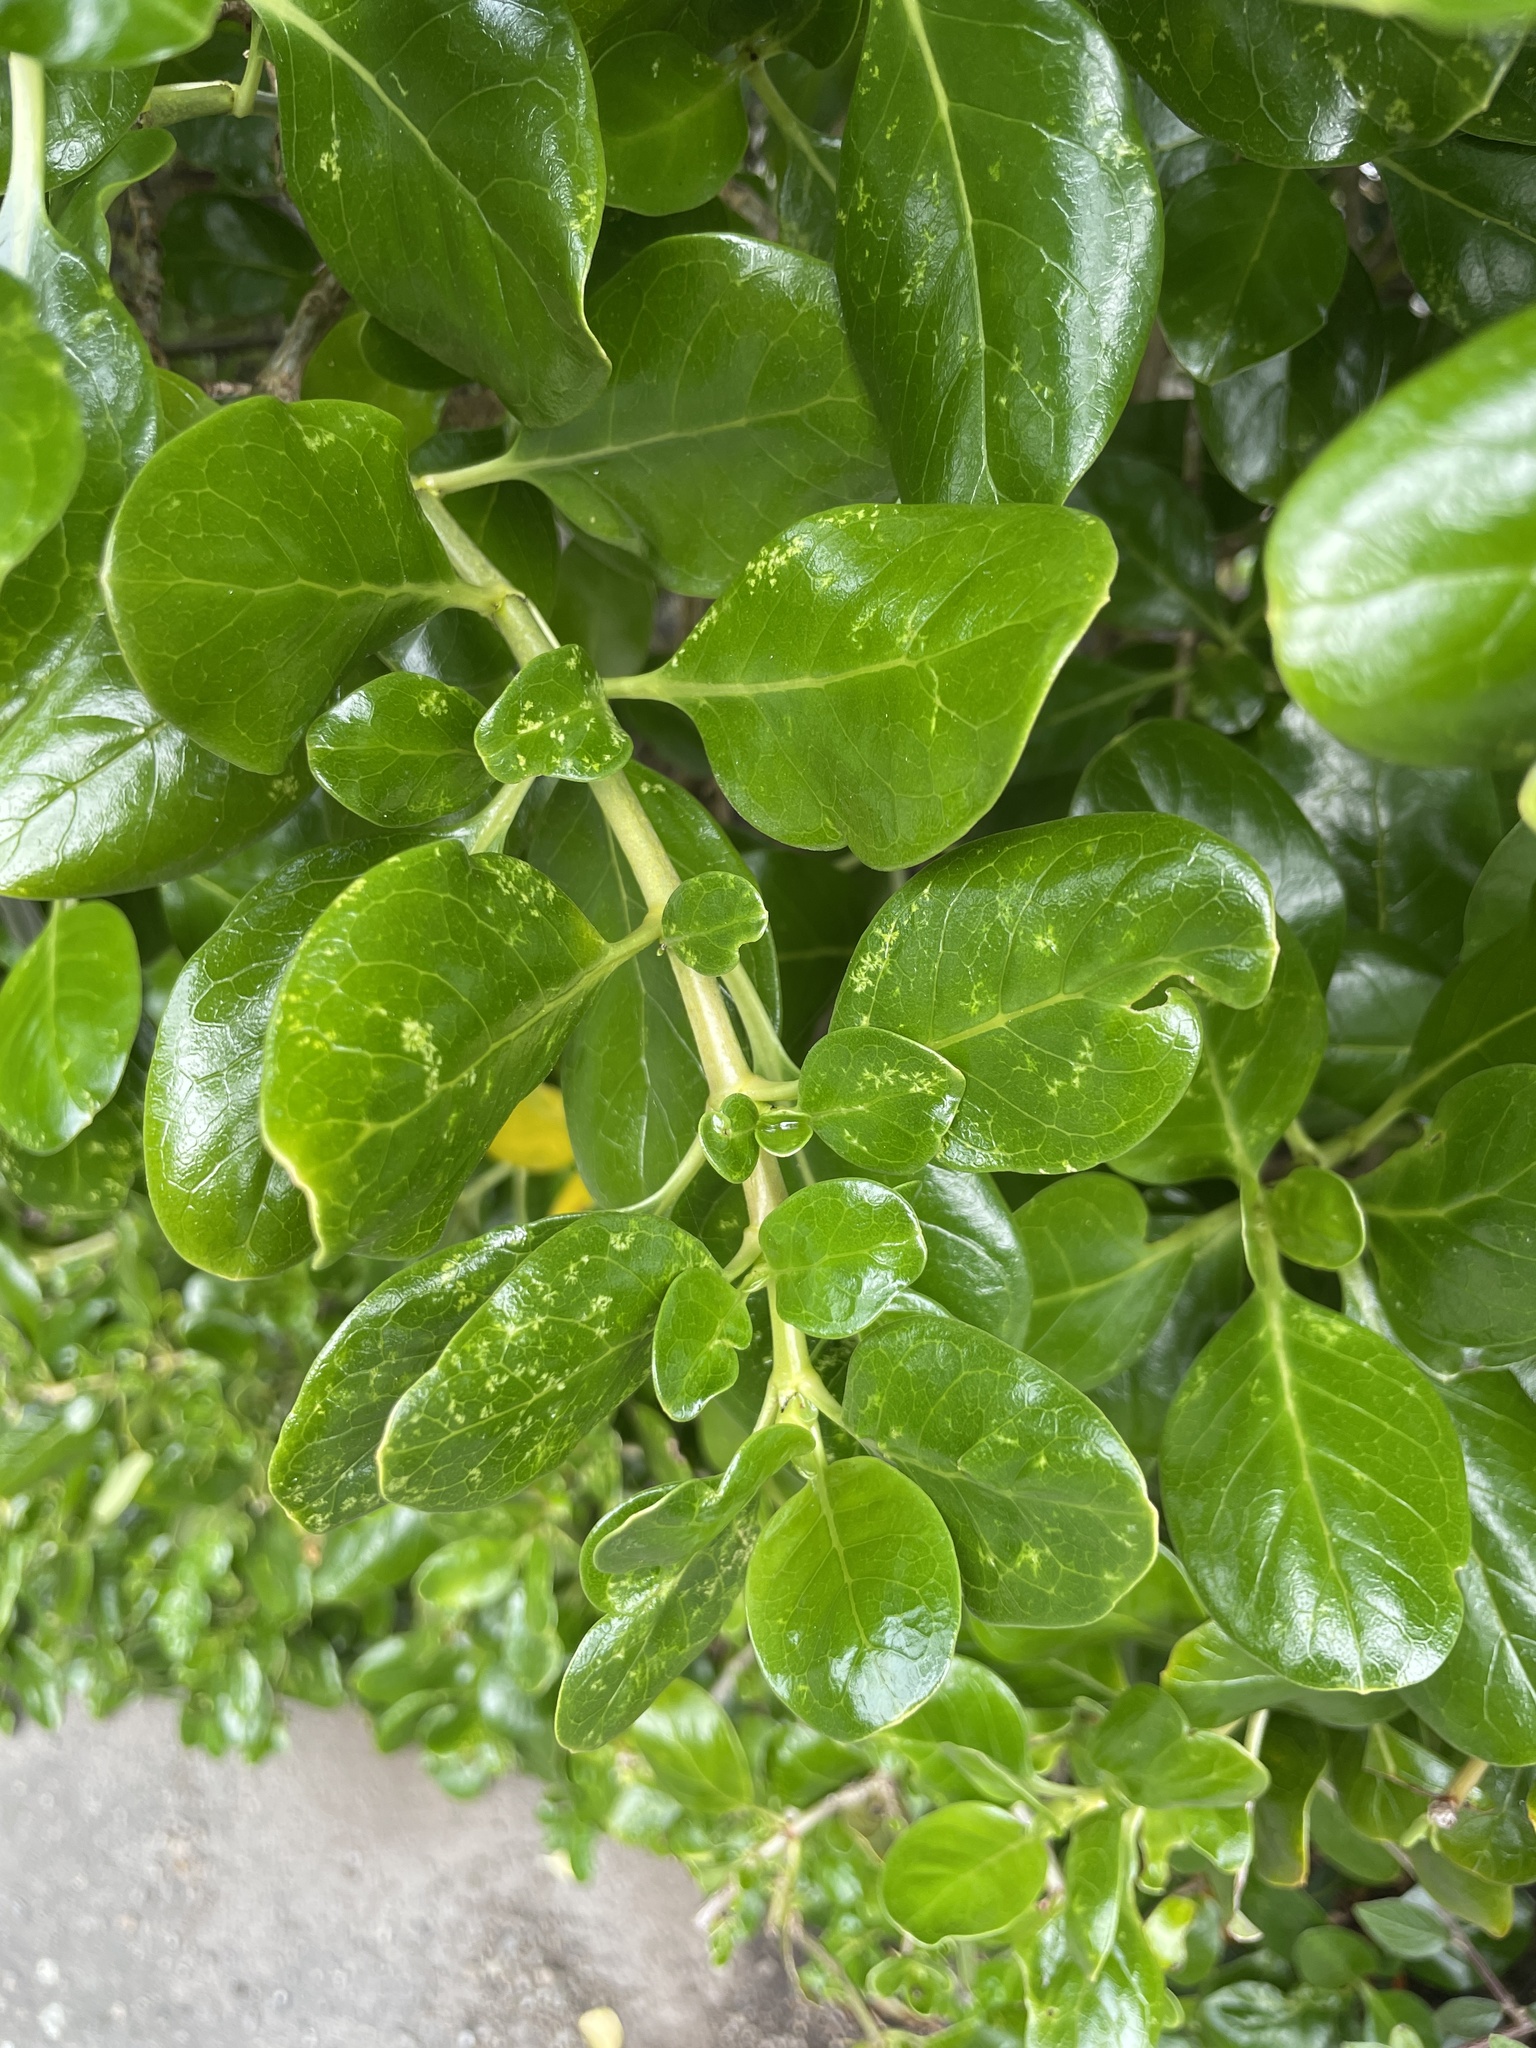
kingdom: Plantae
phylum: Tracheophyta
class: Magnoliopsida
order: Gentianales
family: Rubiaceae
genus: Coprosma
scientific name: Coprosma repens
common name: Tree bedstraw
